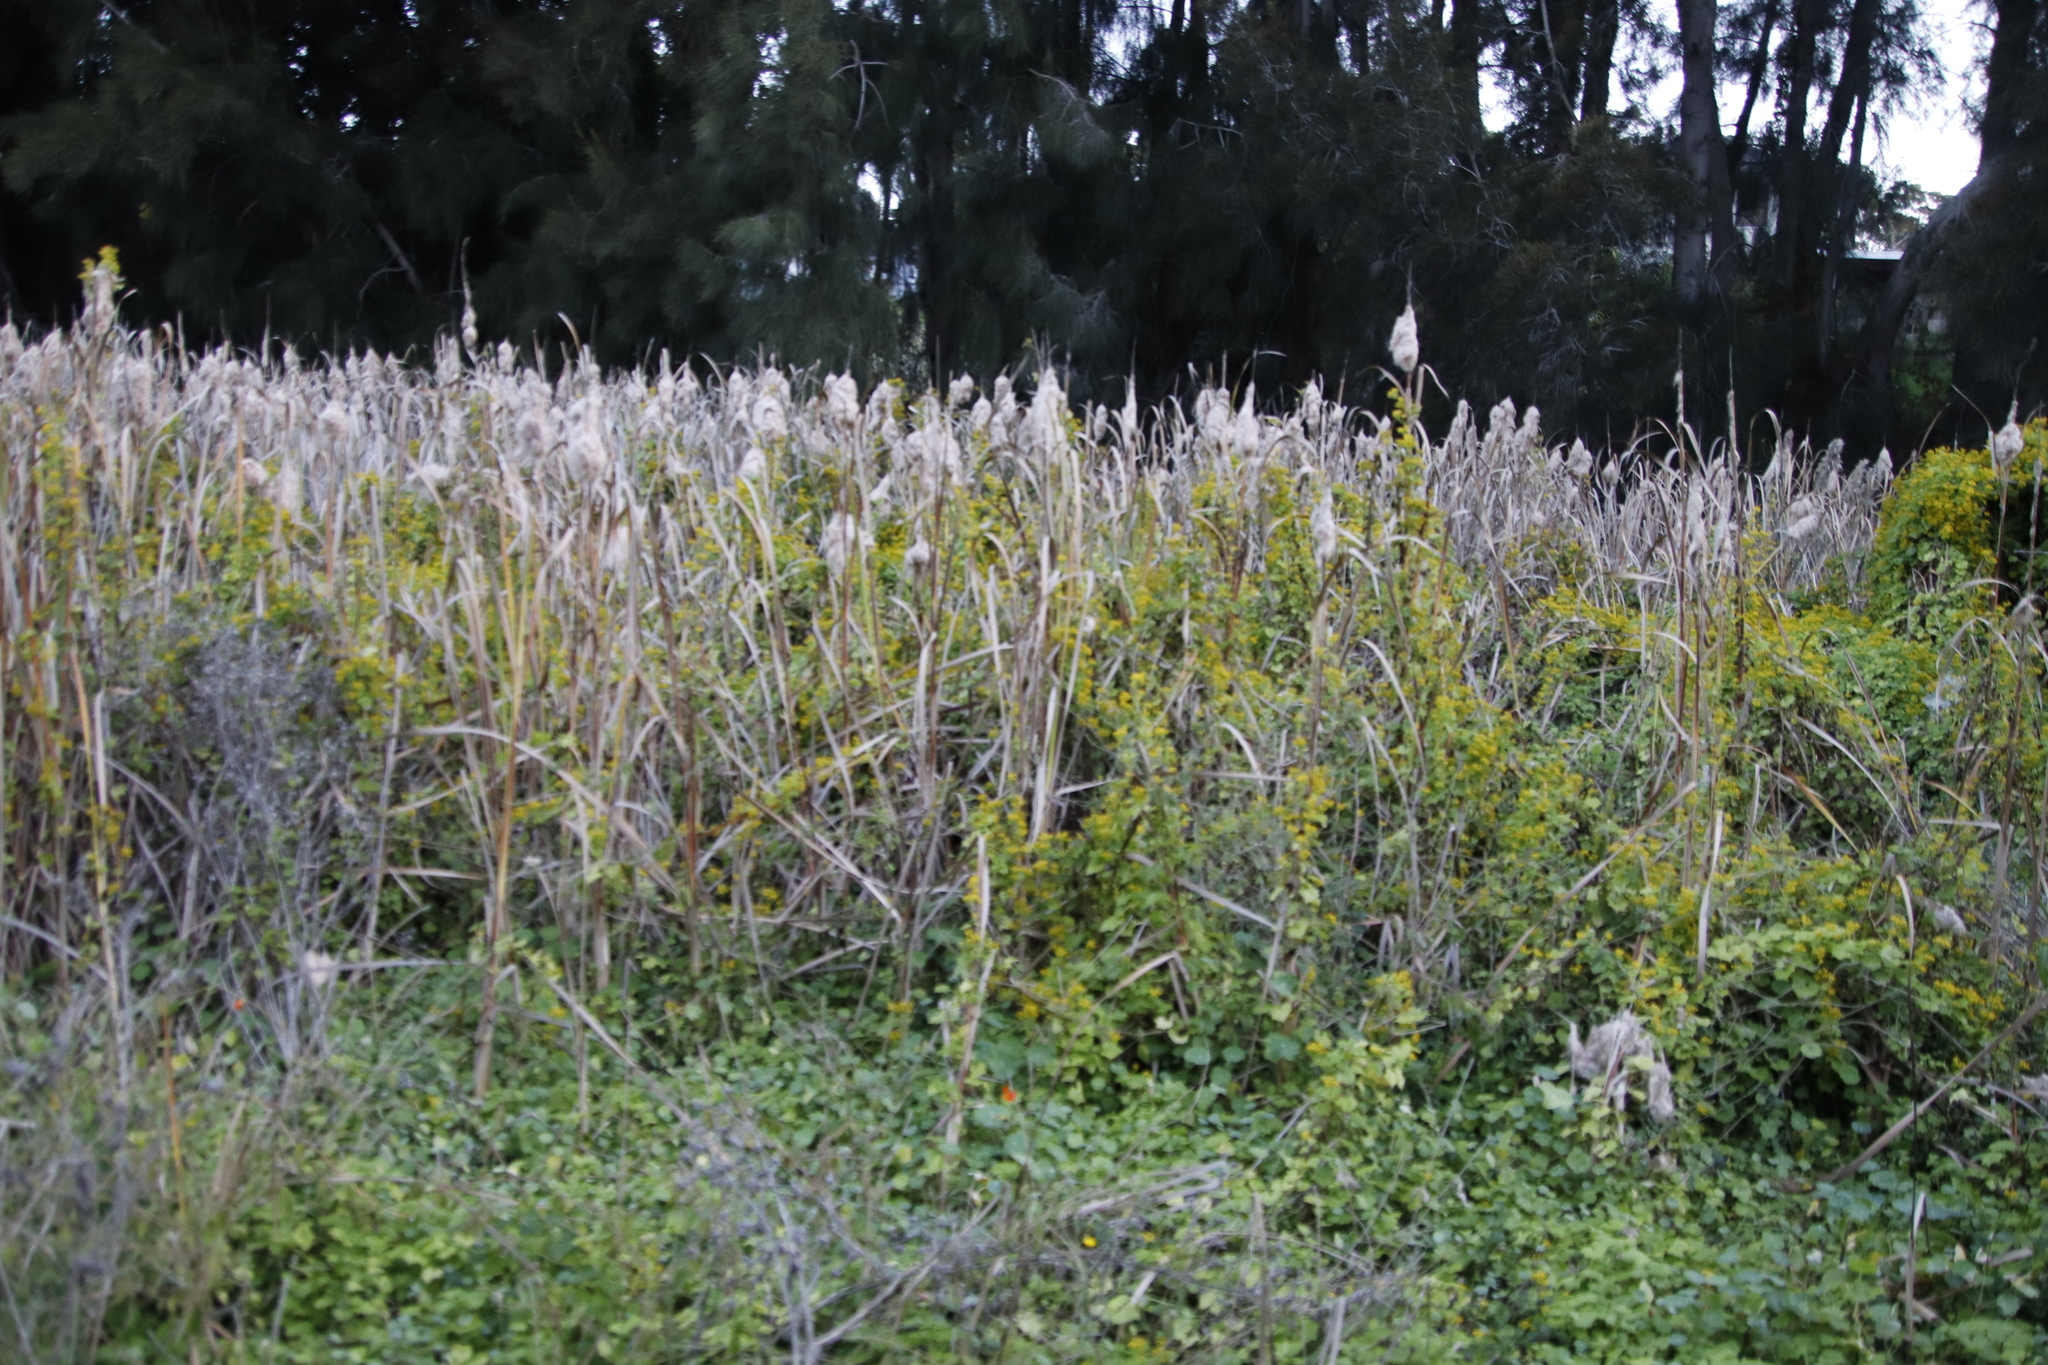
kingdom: Plantae
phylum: Tracheophyta
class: Liliopsida
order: Poales
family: Typhaceae
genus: Typha
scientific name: Typha capensis
